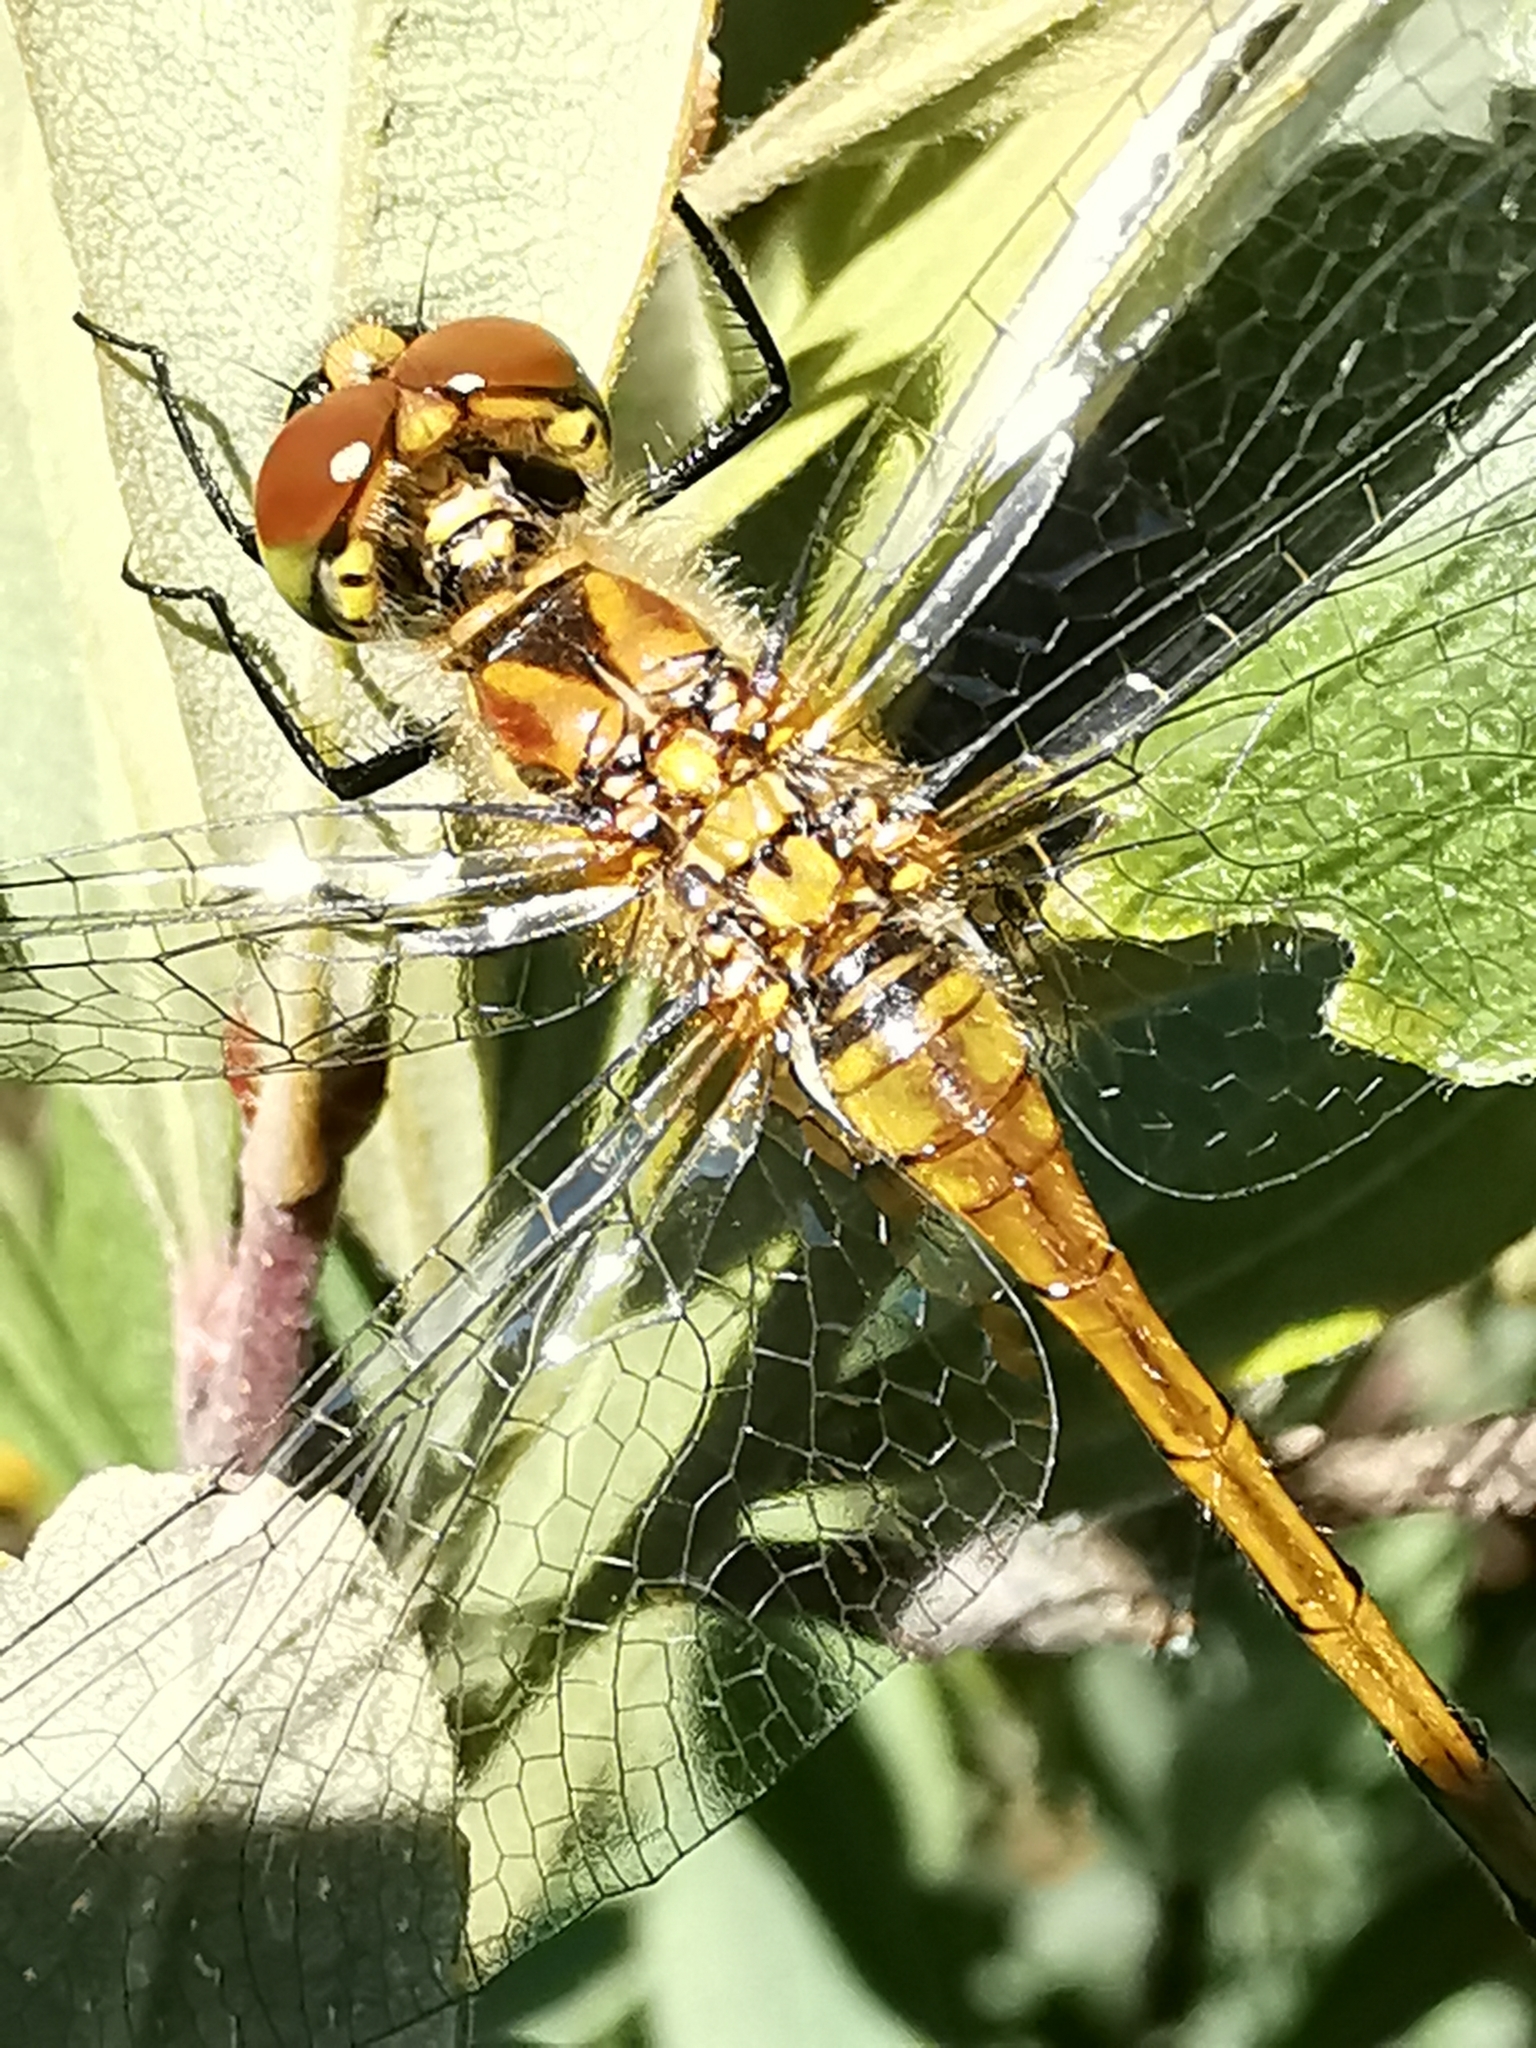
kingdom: Animalia
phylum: Arthropoda
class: Insecta
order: Odonata
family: Libellulidae
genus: Sympetrum
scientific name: Sympetrum danae
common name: Black darter
